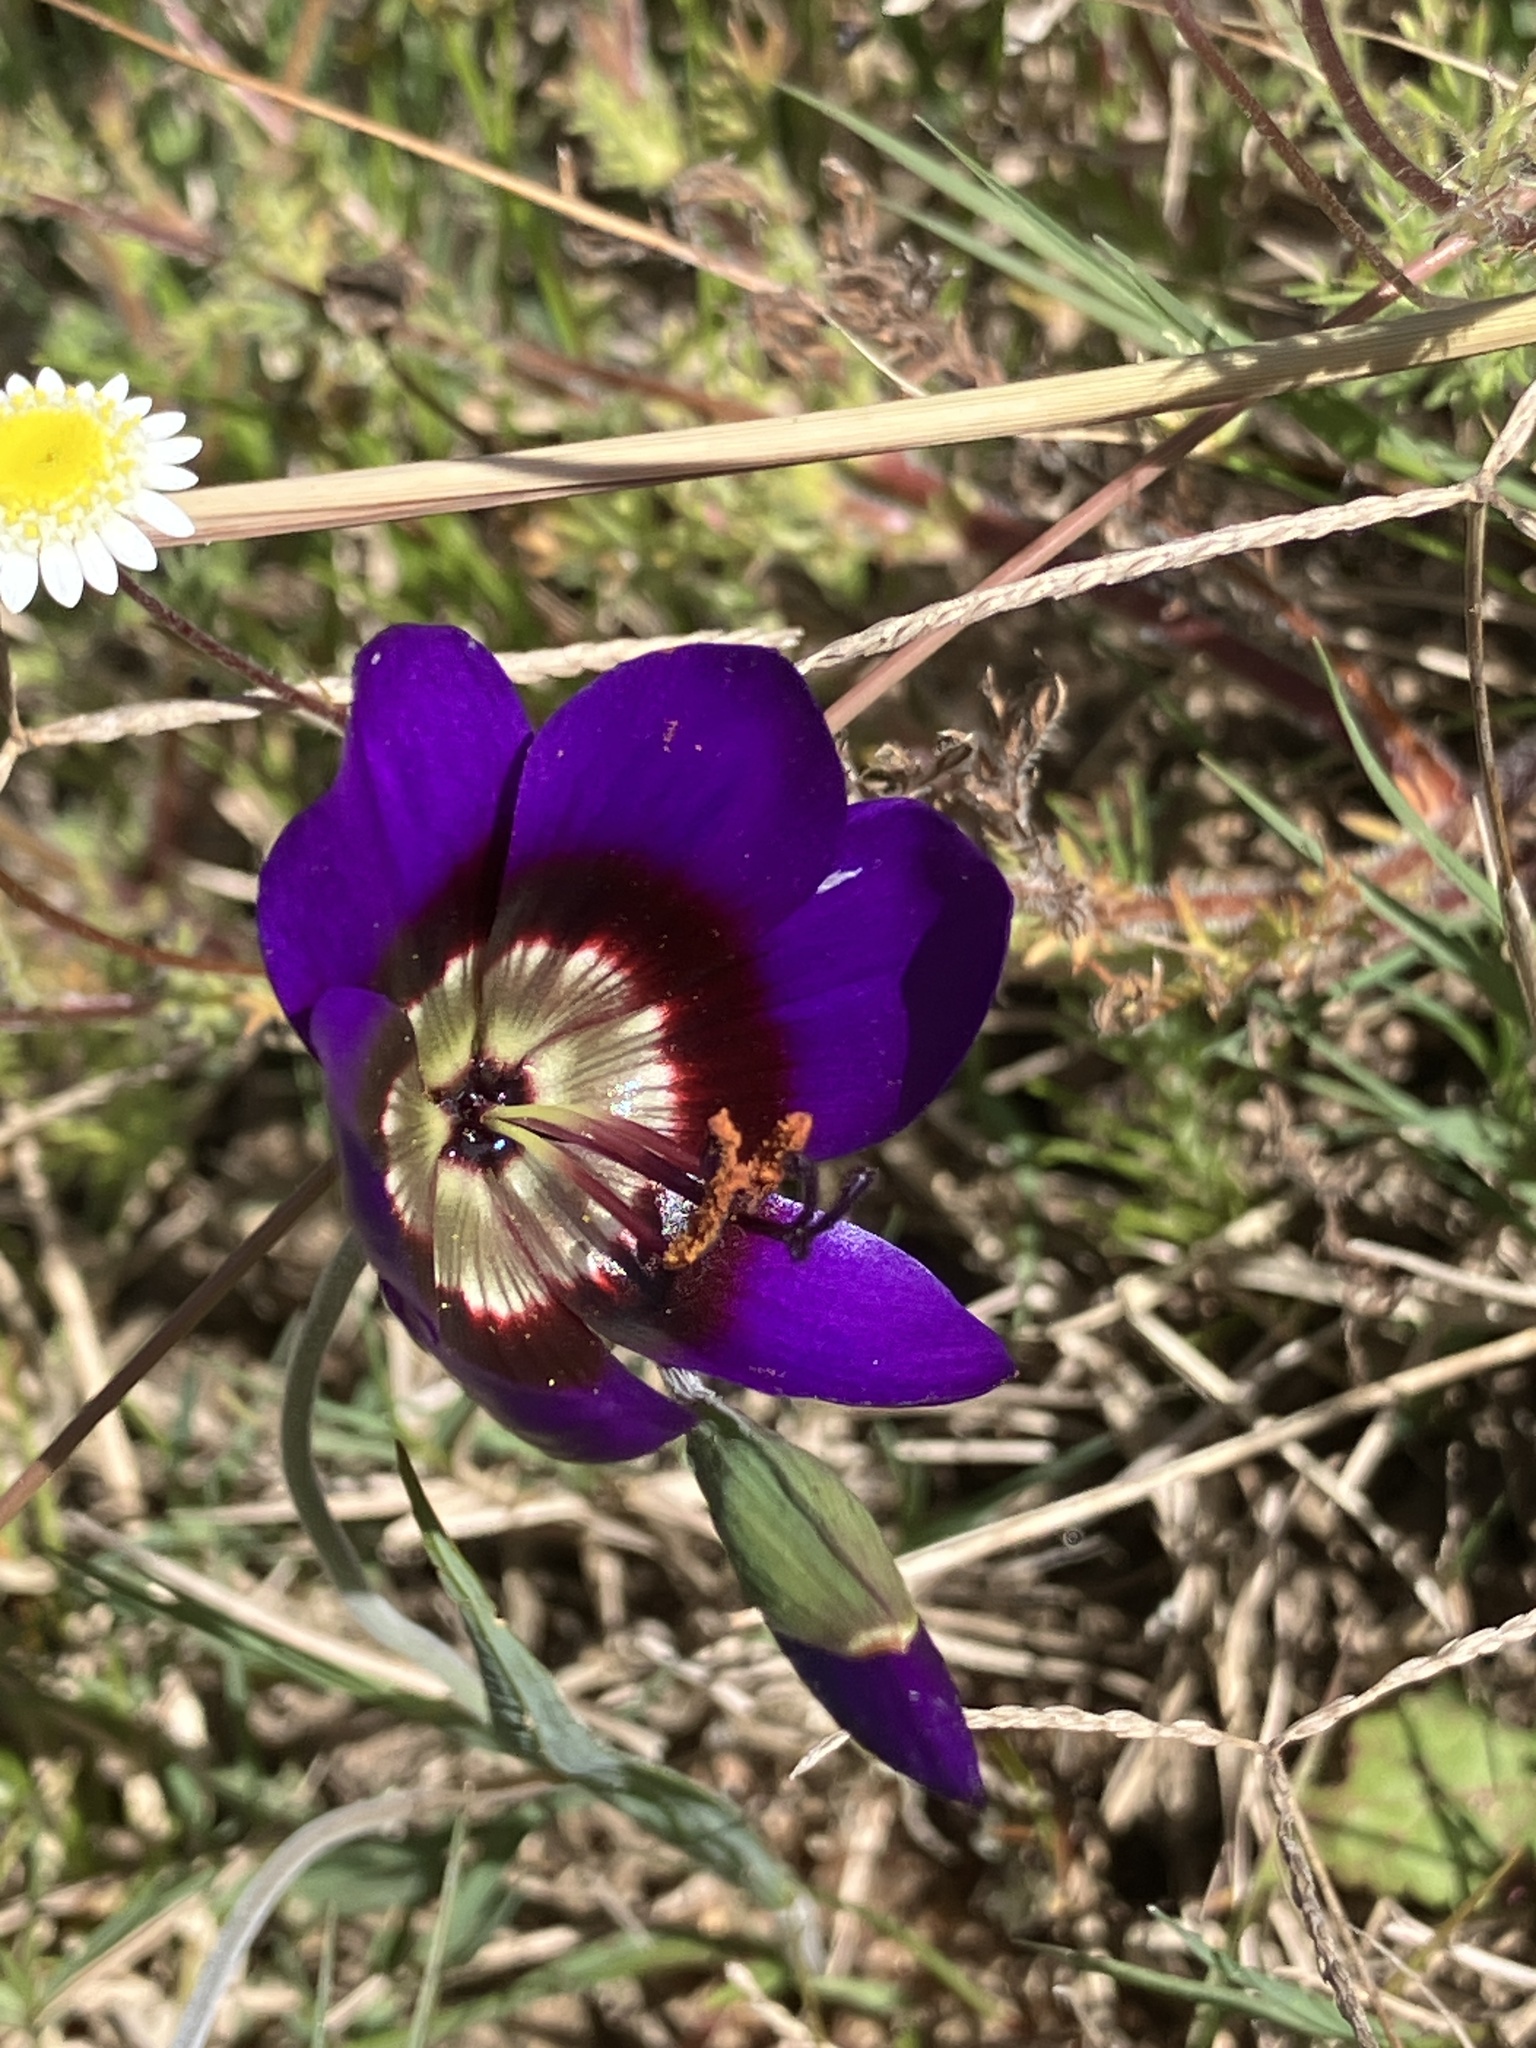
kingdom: Plantae
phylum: Tracheophyta
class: Liliopsida
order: Asparagales
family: Iridaceae
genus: Geissorhiza
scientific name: Geissorhiza monanthos
